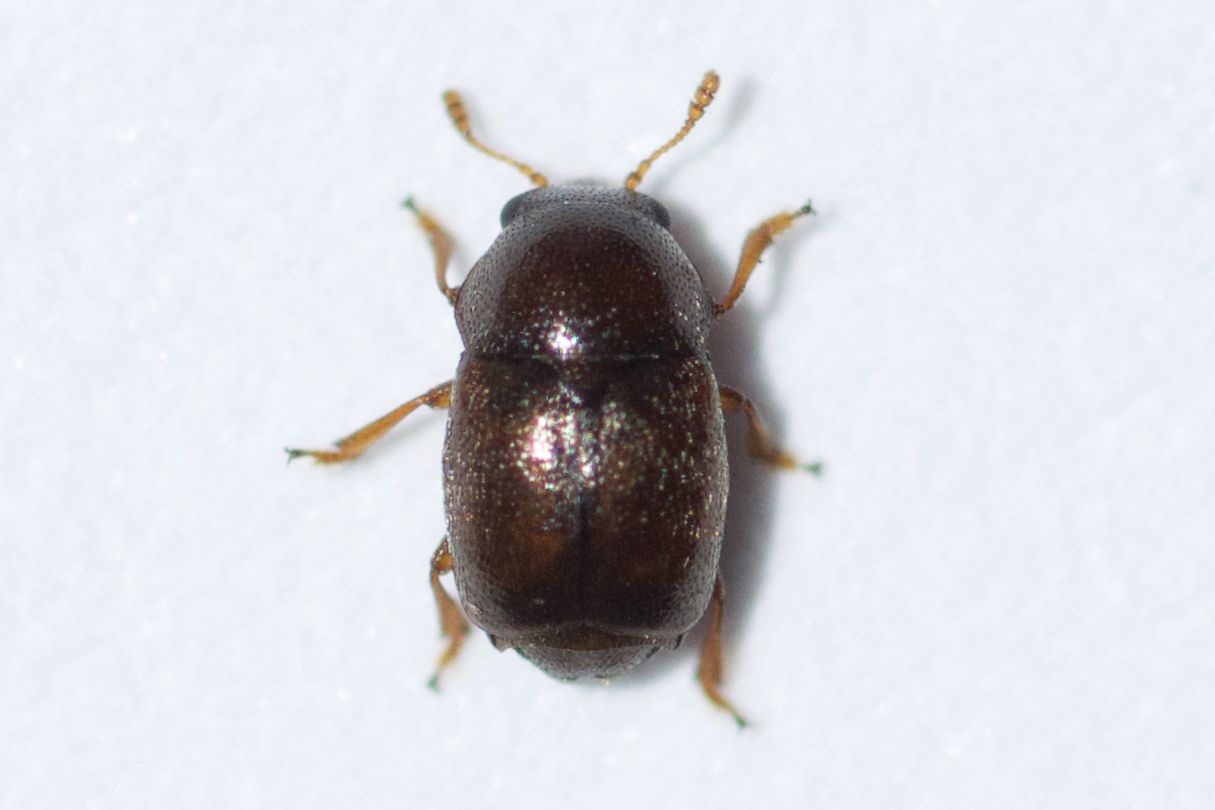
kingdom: Animalia
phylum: Arthropoda
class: Insecta
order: Coleoptera
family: Kateretidae
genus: Brachypterus
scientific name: Brachypterus urticae
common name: Sap beetle
